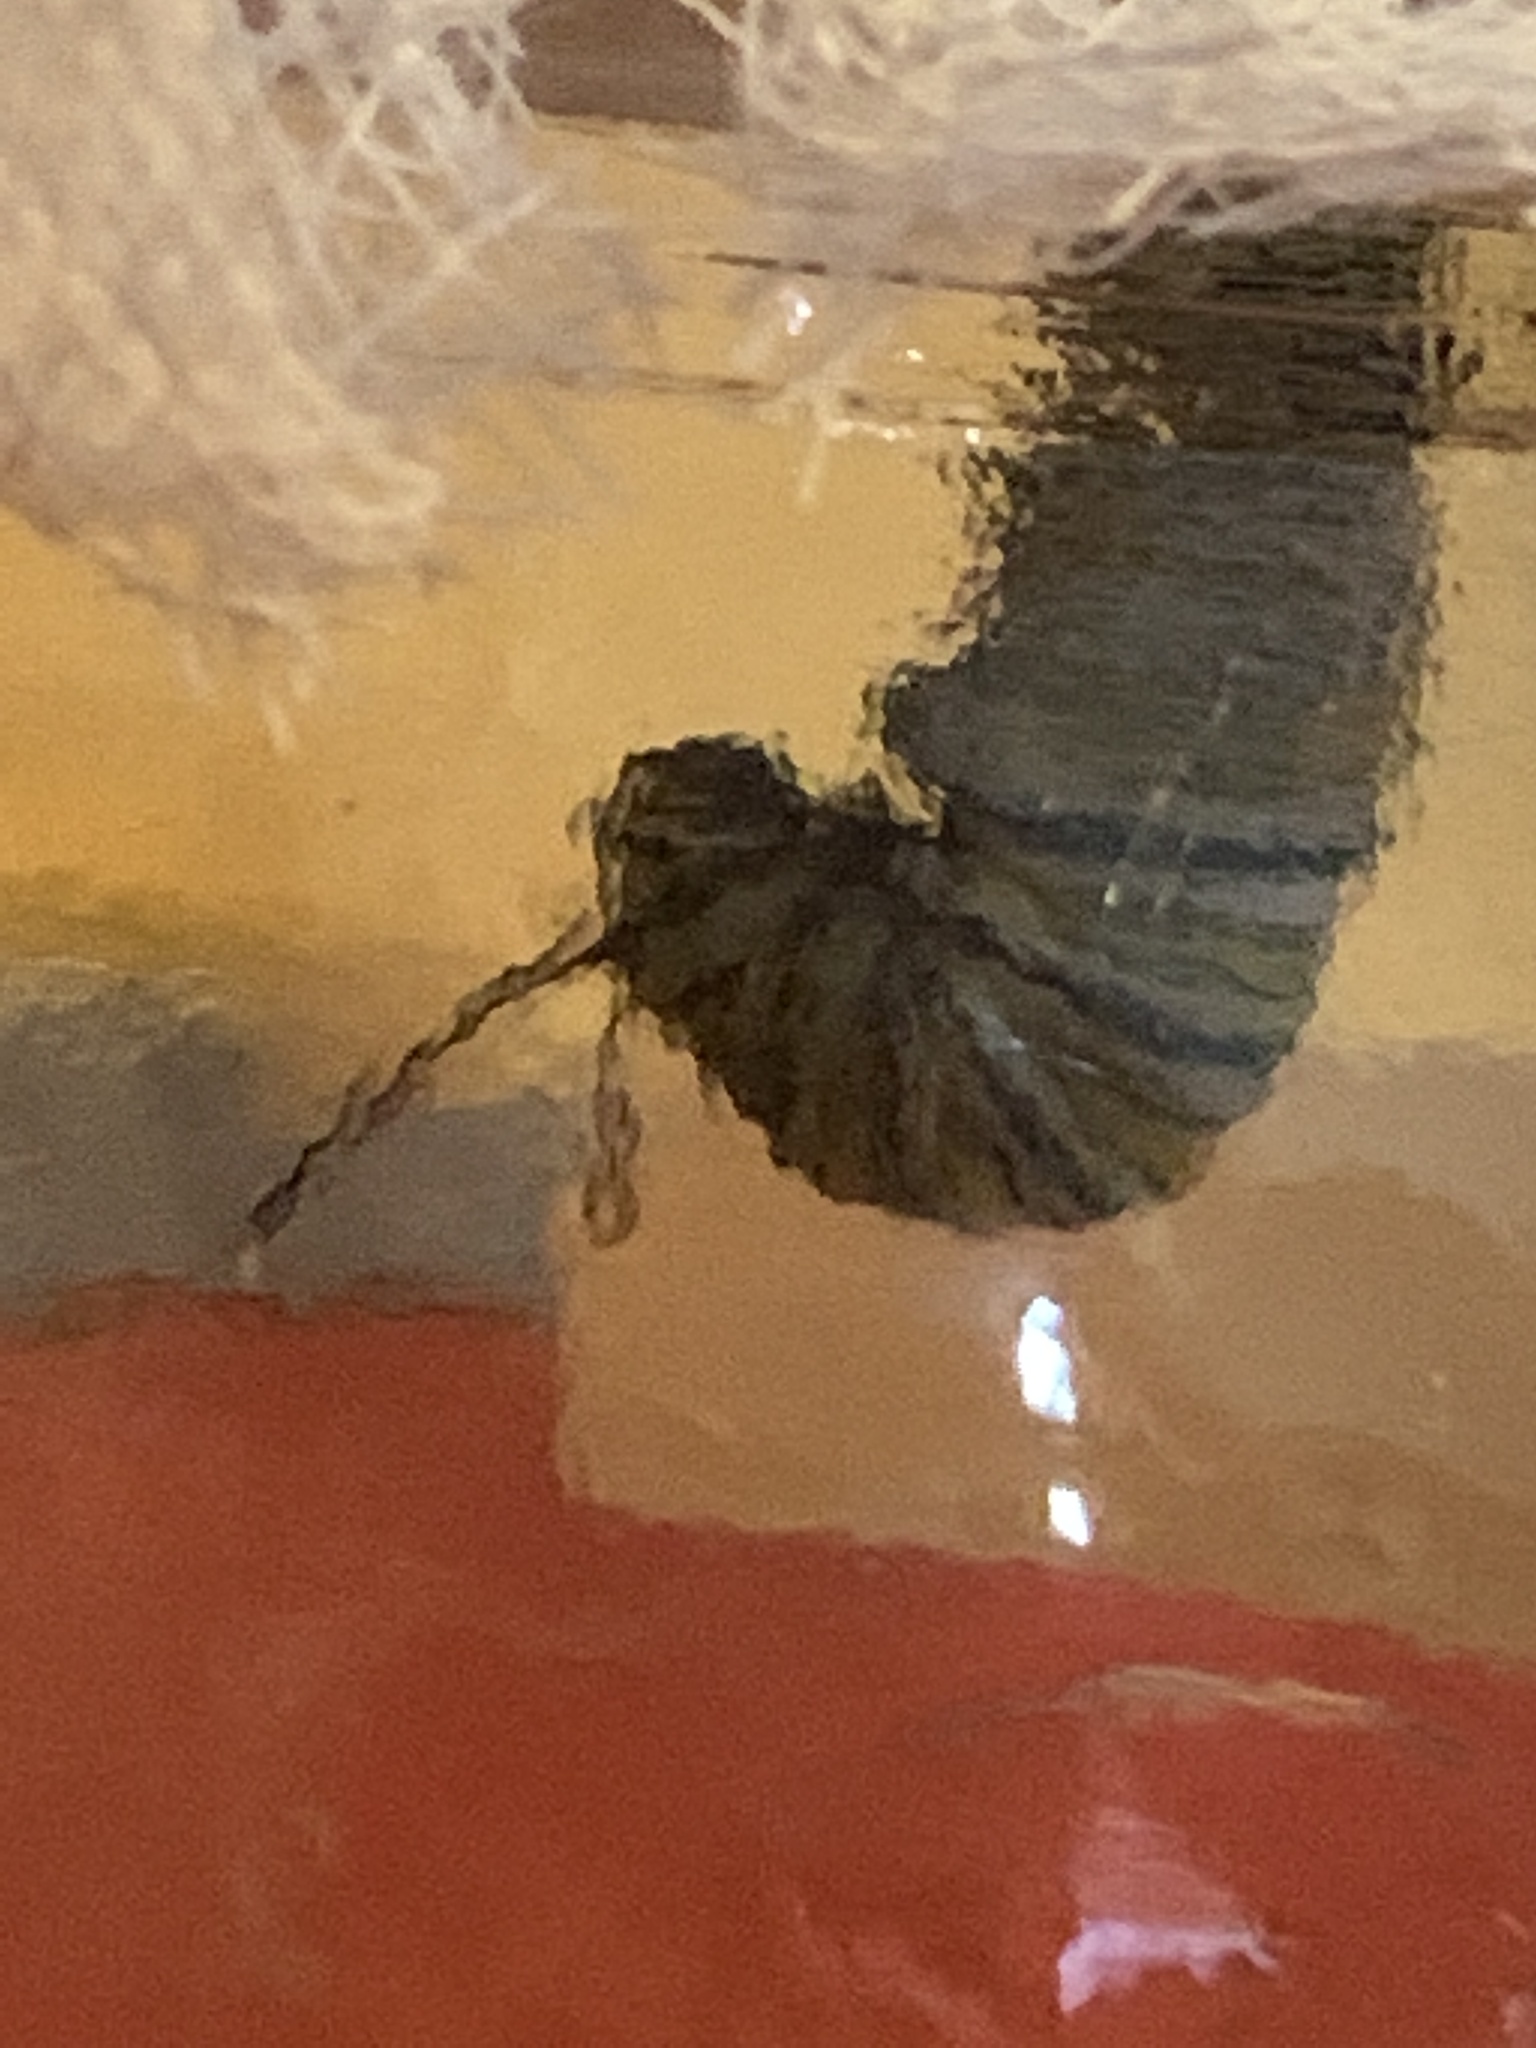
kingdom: Animalia
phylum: Arthropoda
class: Insecta
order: Lepidoptera
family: Nymphalidae
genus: Danaus
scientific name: Danaus plexippus
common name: Monarch
